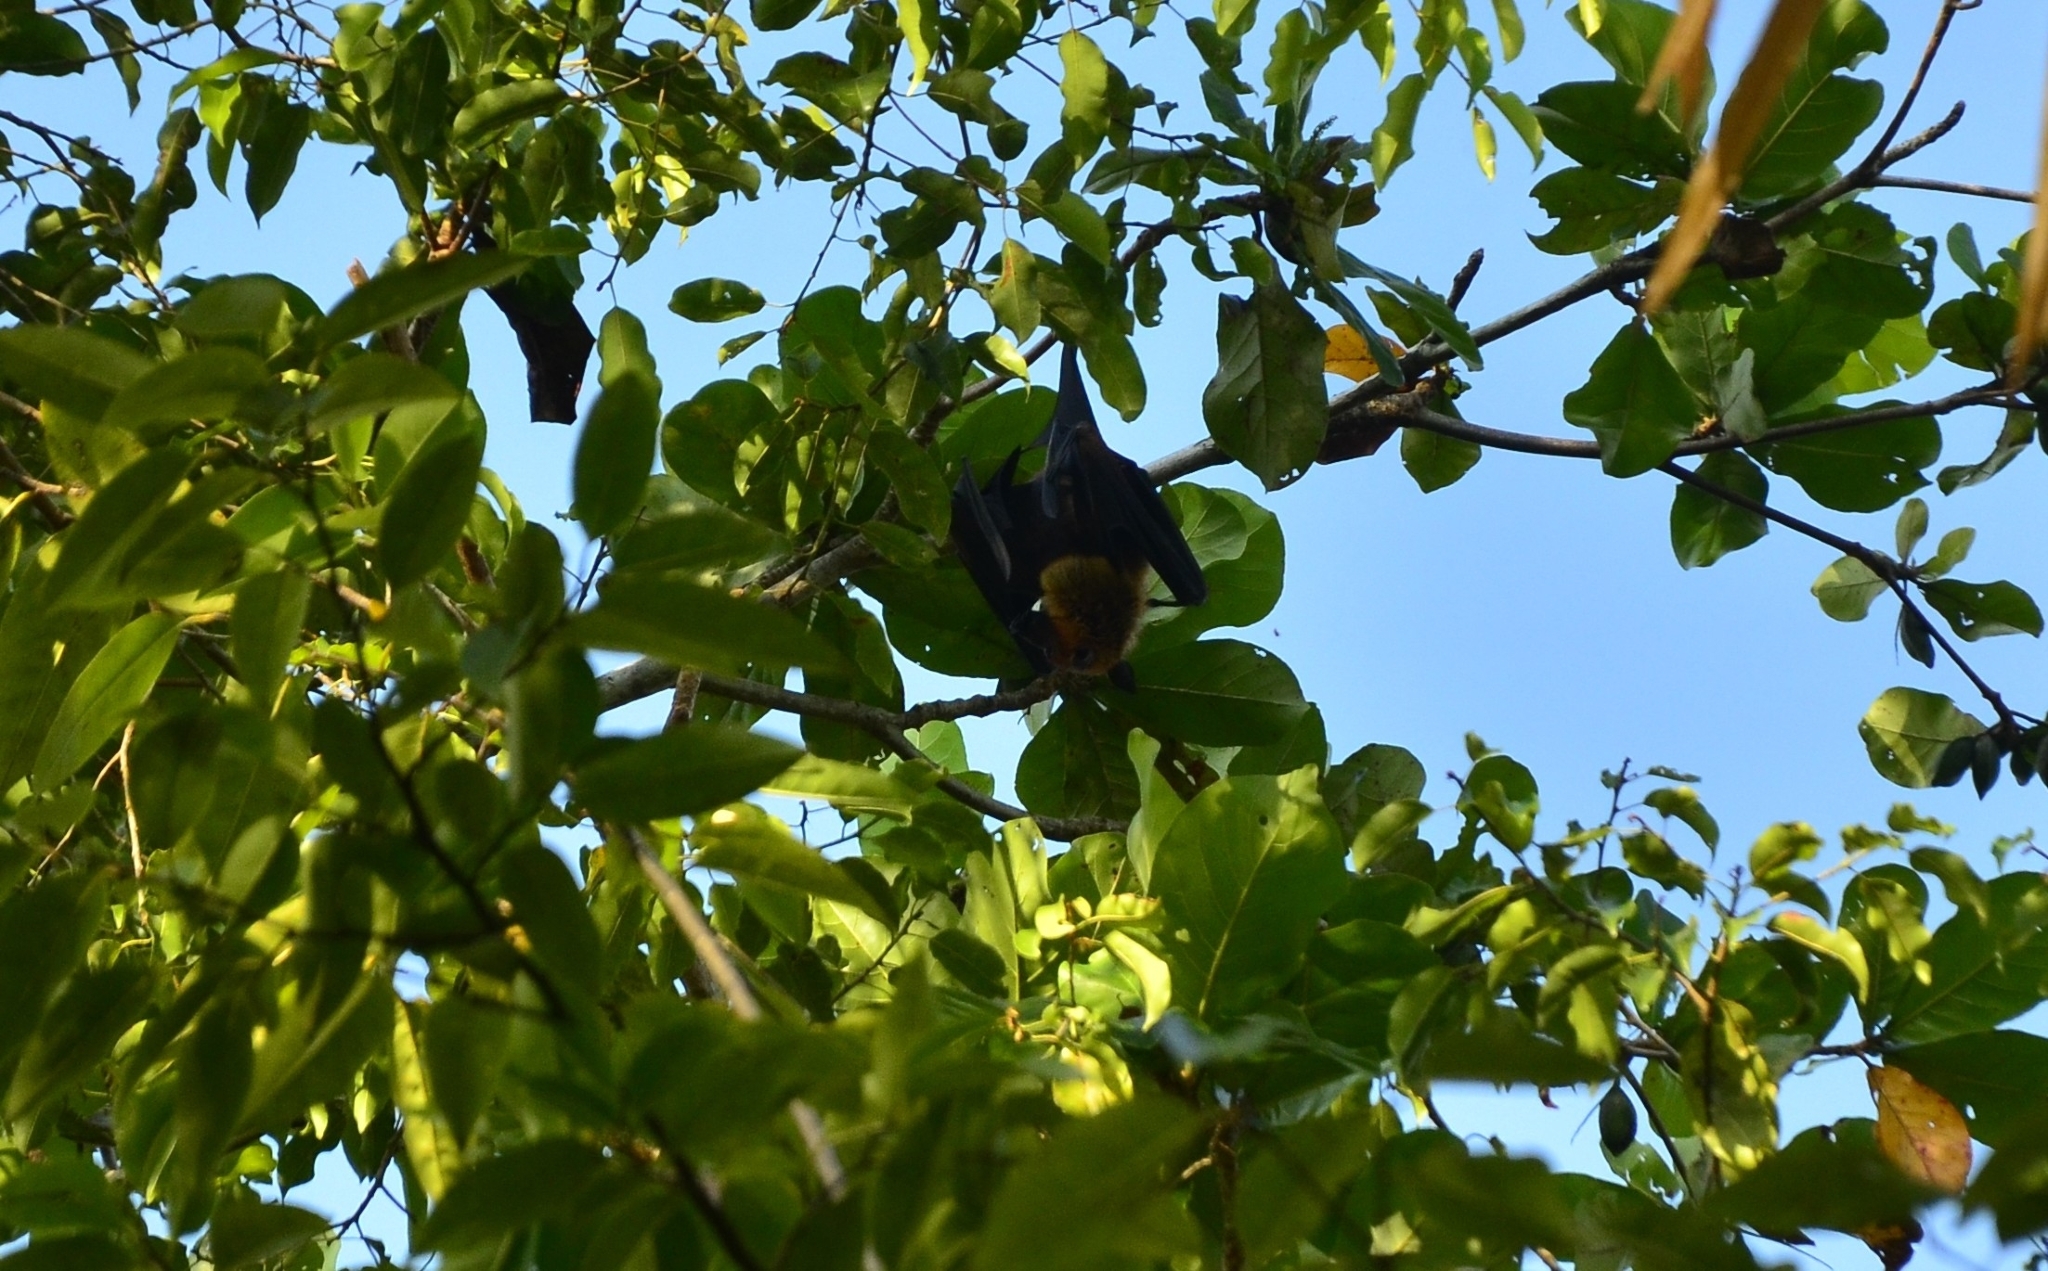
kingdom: Animalia
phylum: Chordata
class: Mammalia
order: Chiroptera
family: Pteropodidae
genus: Pteropus
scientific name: Pteropus vampyrus
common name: Large flying fox
